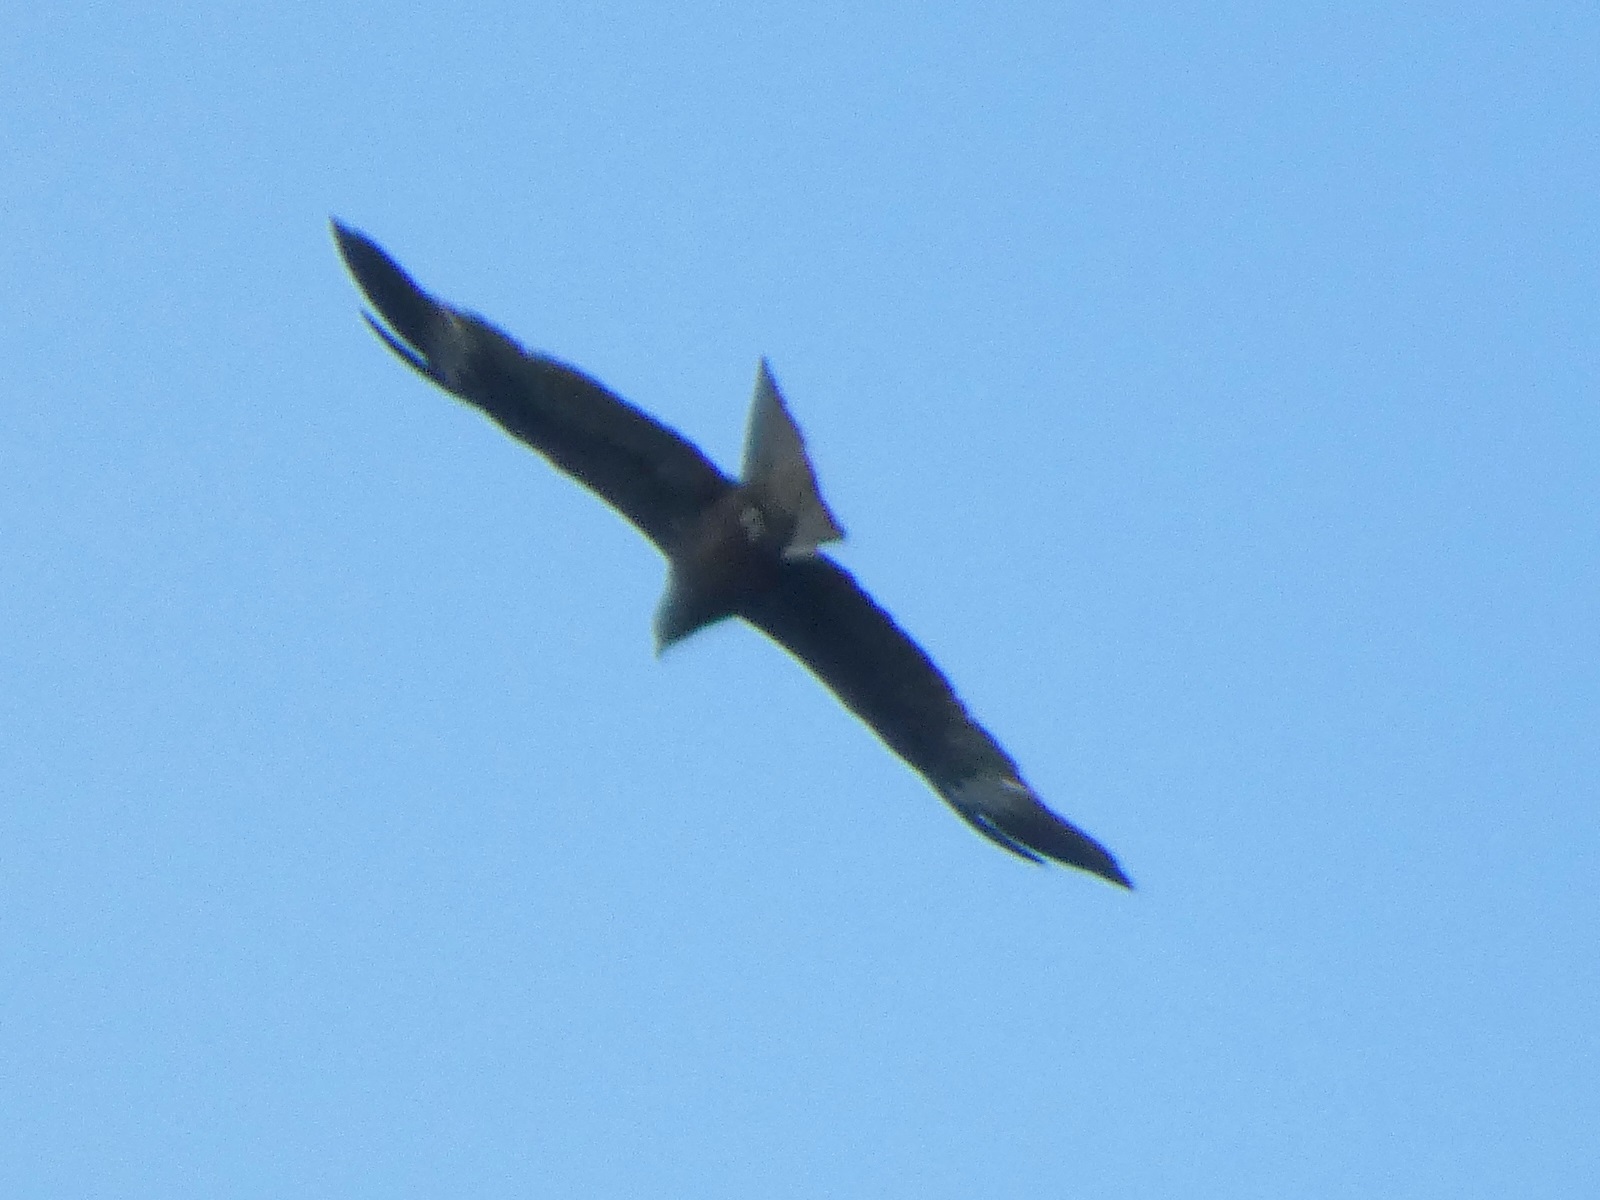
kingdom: Animalia
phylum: Chordata
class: Aves
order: Accipitriformes
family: Accipitridae
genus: Milvus
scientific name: Milvus migrans
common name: Black kite
